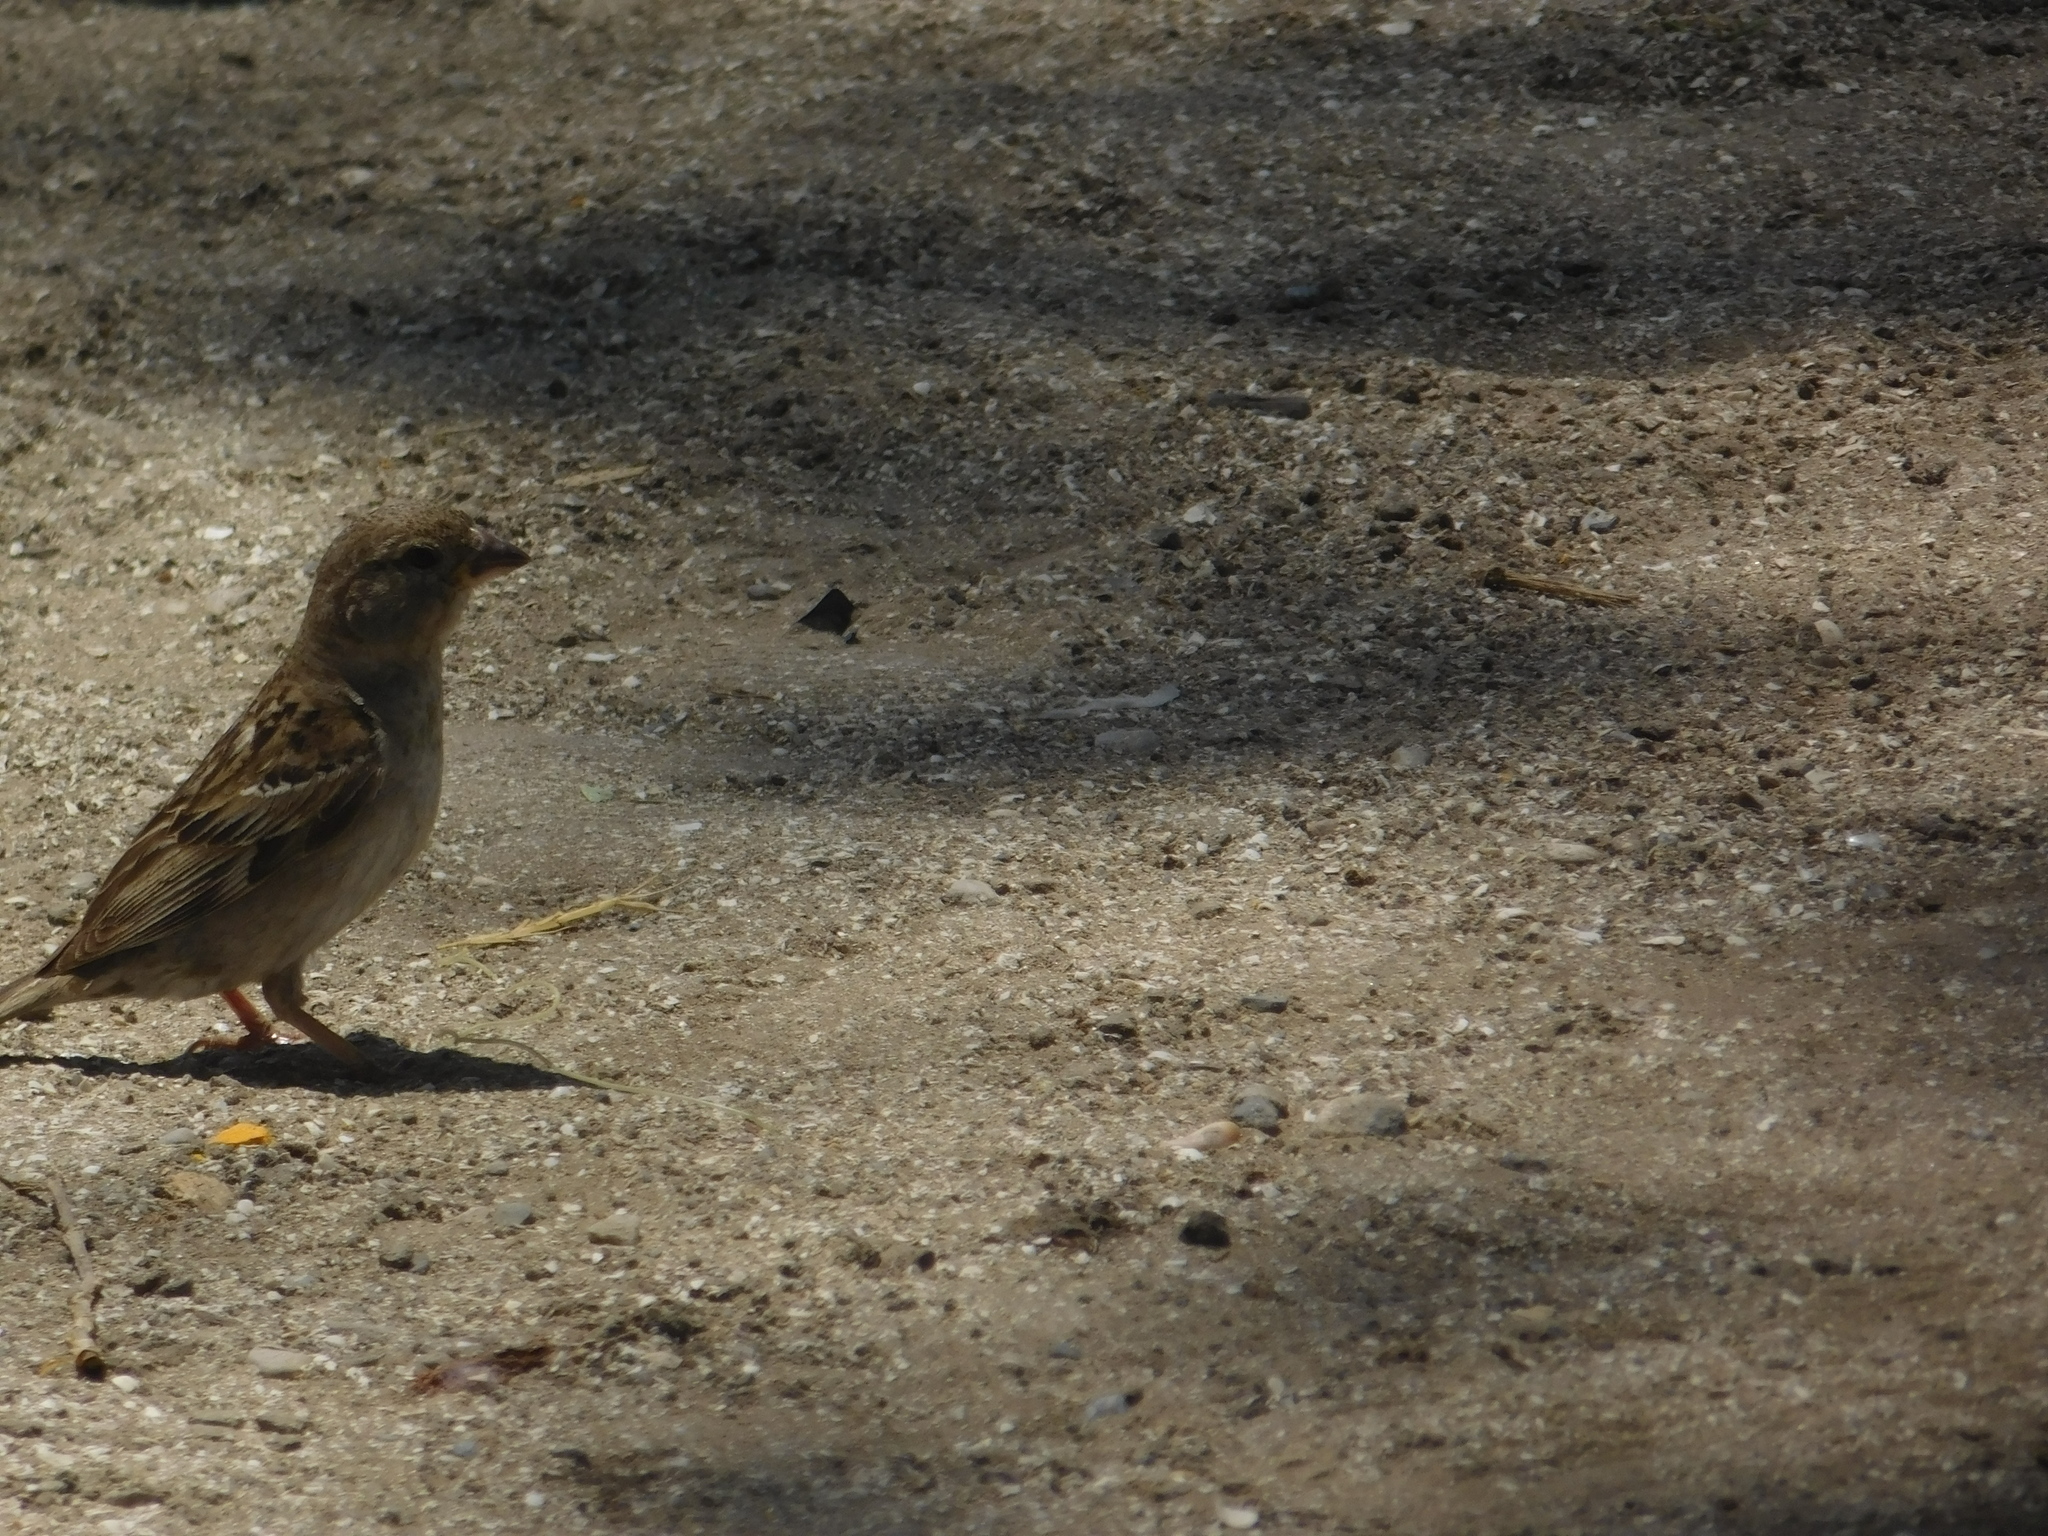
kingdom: Animalia
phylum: Chordata
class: Aves
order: Passeriformes
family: Passeridae
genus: Passer
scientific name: Passer domesticus
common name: House sparrow
